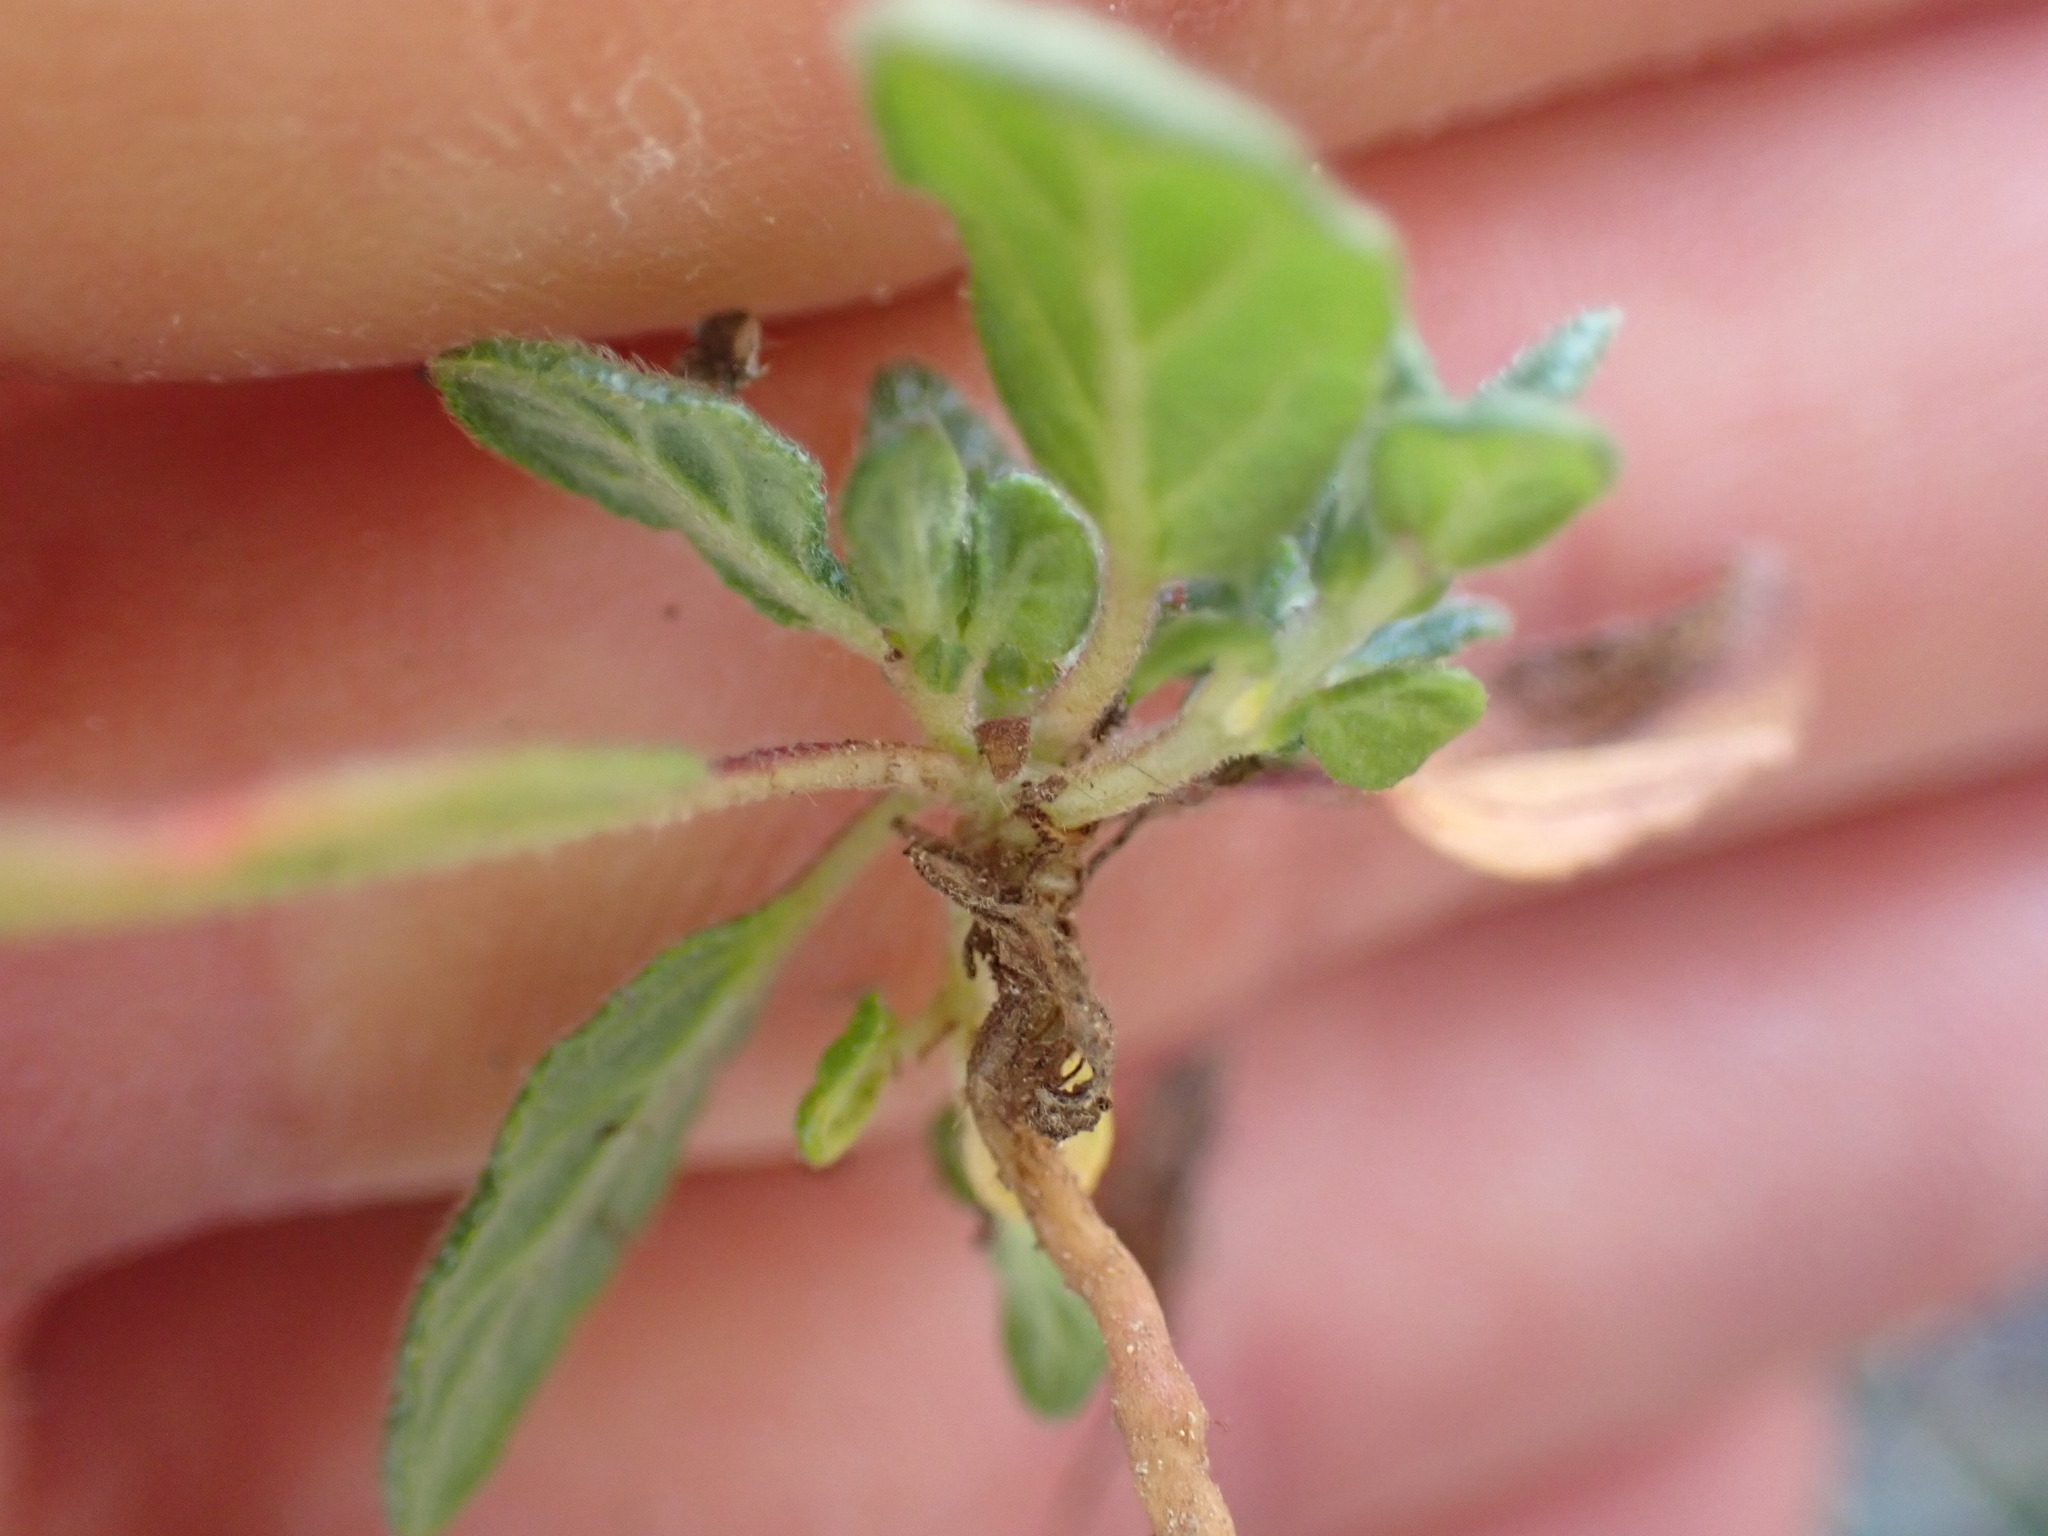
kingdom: Plantae
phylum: Tracheophyta
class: Magnoliopsida
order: Malvales
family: Cistaceae
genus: Helianthemum
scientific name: Helianthemum salicifolium
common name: Willowleaf frostweed
